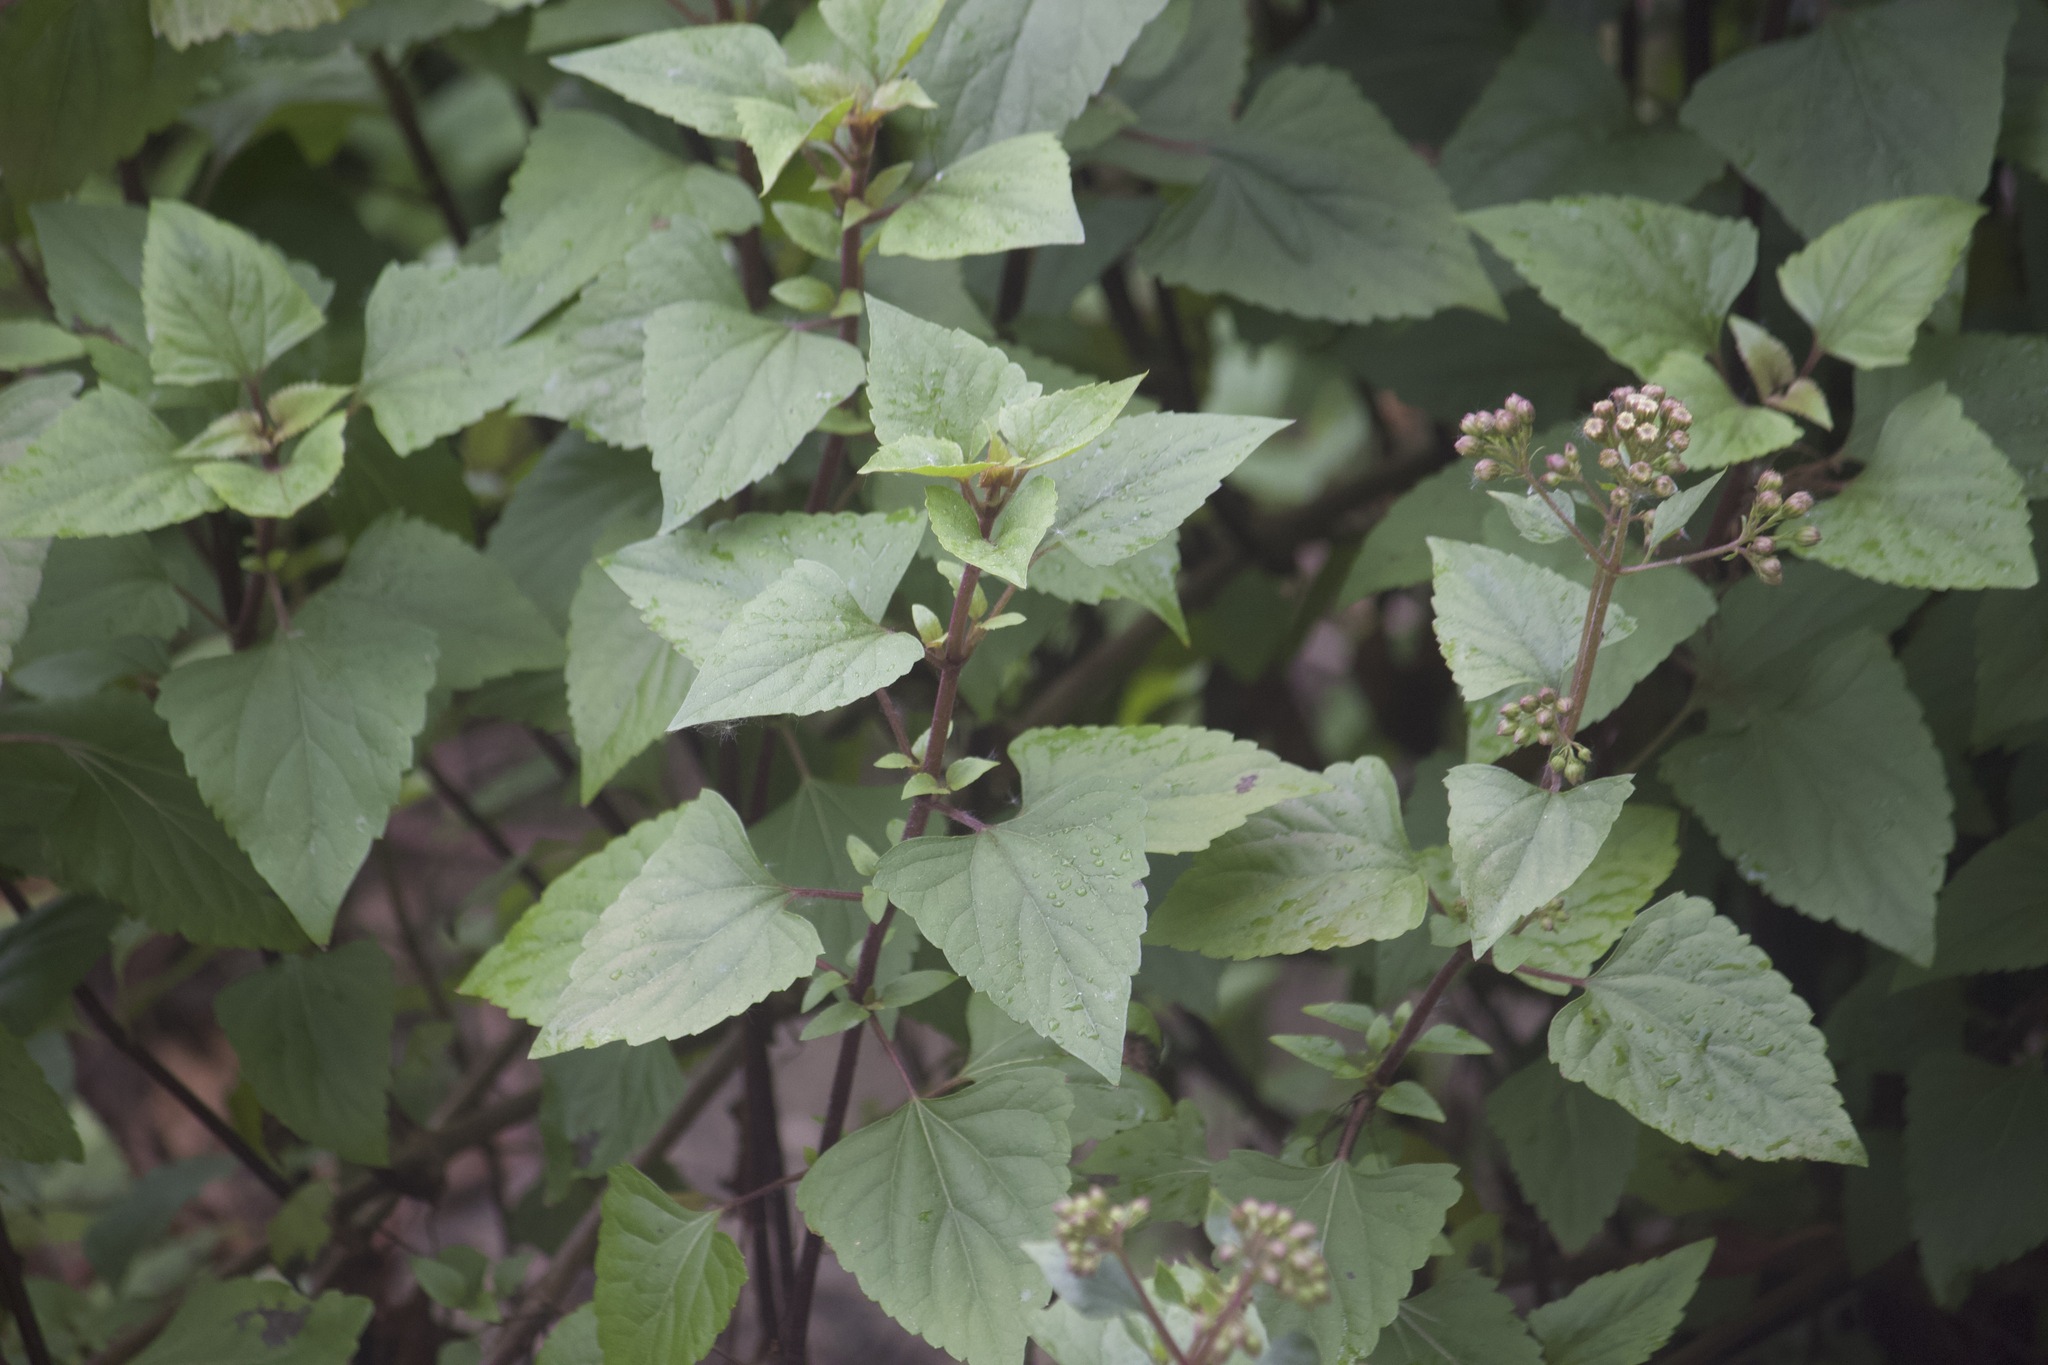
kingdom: Plantae
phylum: Tracheophyta
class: Magnoliopsida
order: Asterales
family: Asteraceae
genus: Ageratina
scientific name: Ageratina adenophora
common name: Sticky snakeroot
